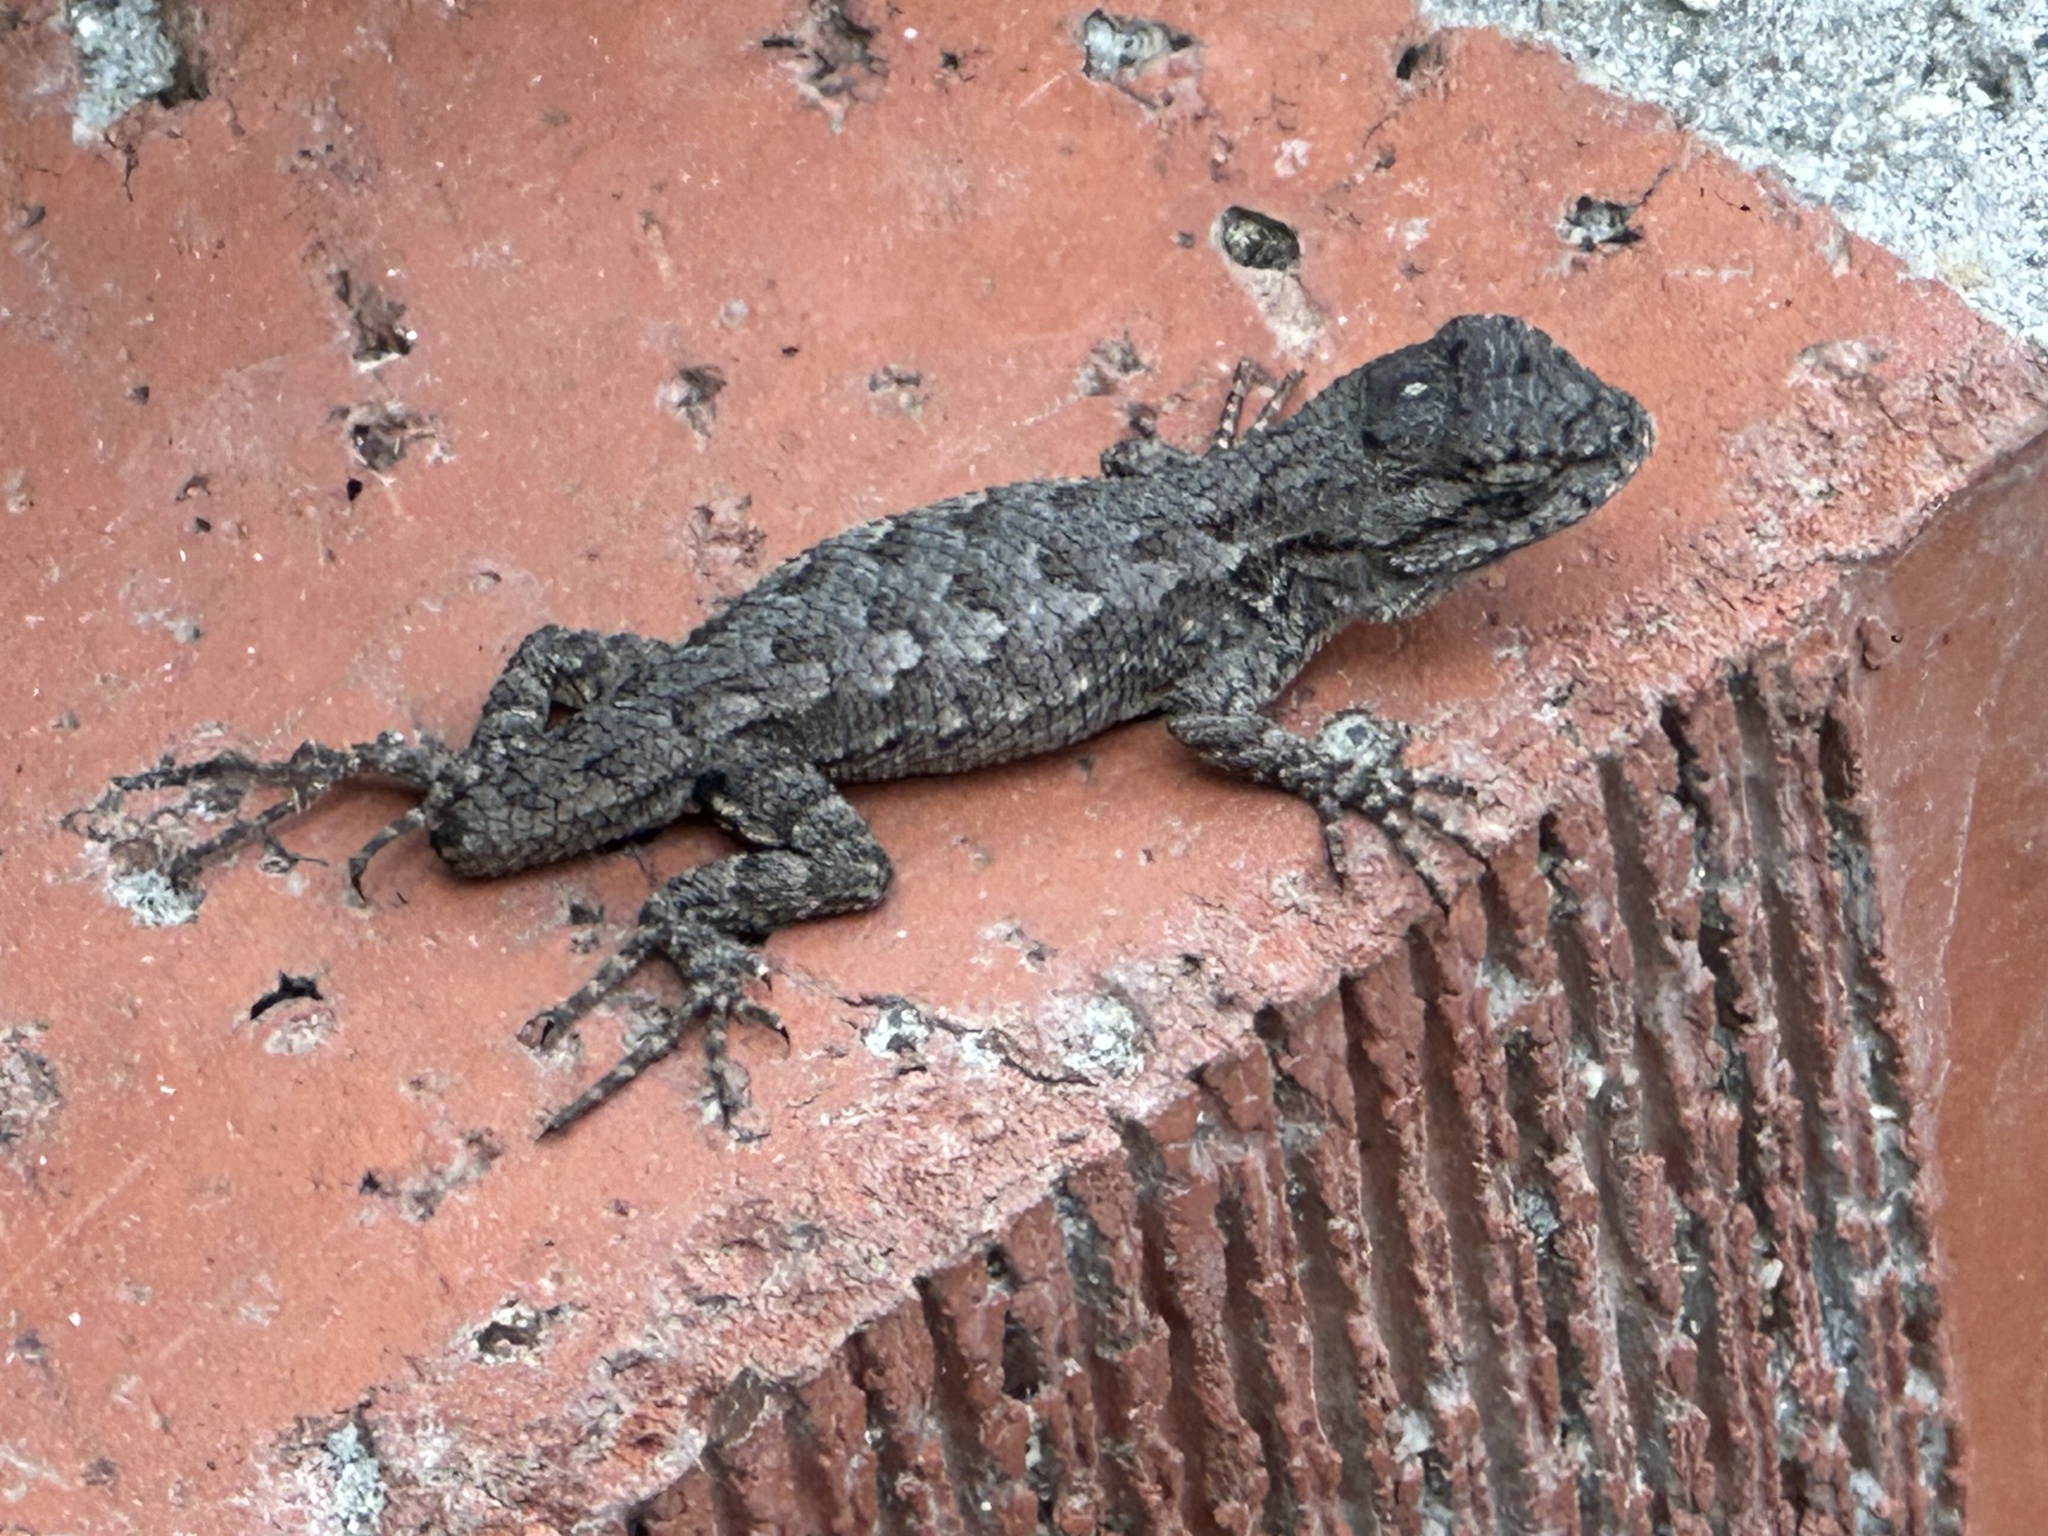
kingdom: Animalia
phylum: Chordata
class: Squamata
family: Phrynosomatidae
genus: Sceloporus
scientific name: Sceloporus occidentalis
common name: Western fence lizard
